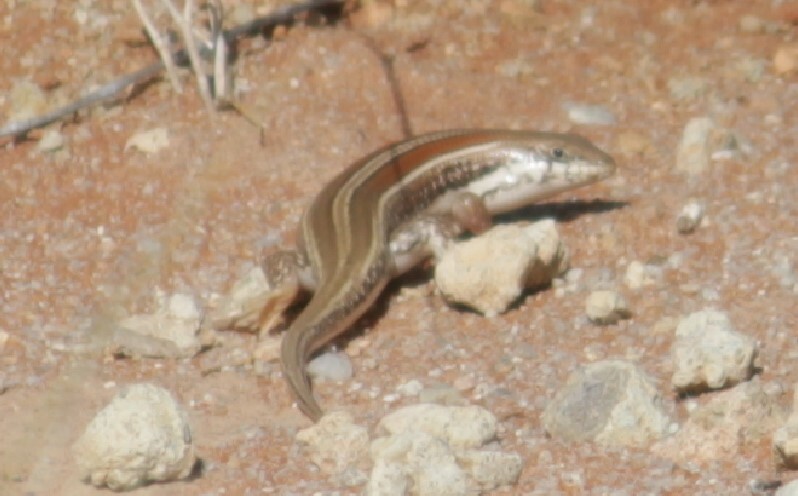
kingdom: Animalia
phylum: Chordata
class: Squamata
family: Scincidae
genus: Trachylepis
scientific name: Trachylepis occidentalis
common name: Western three-striped skink
